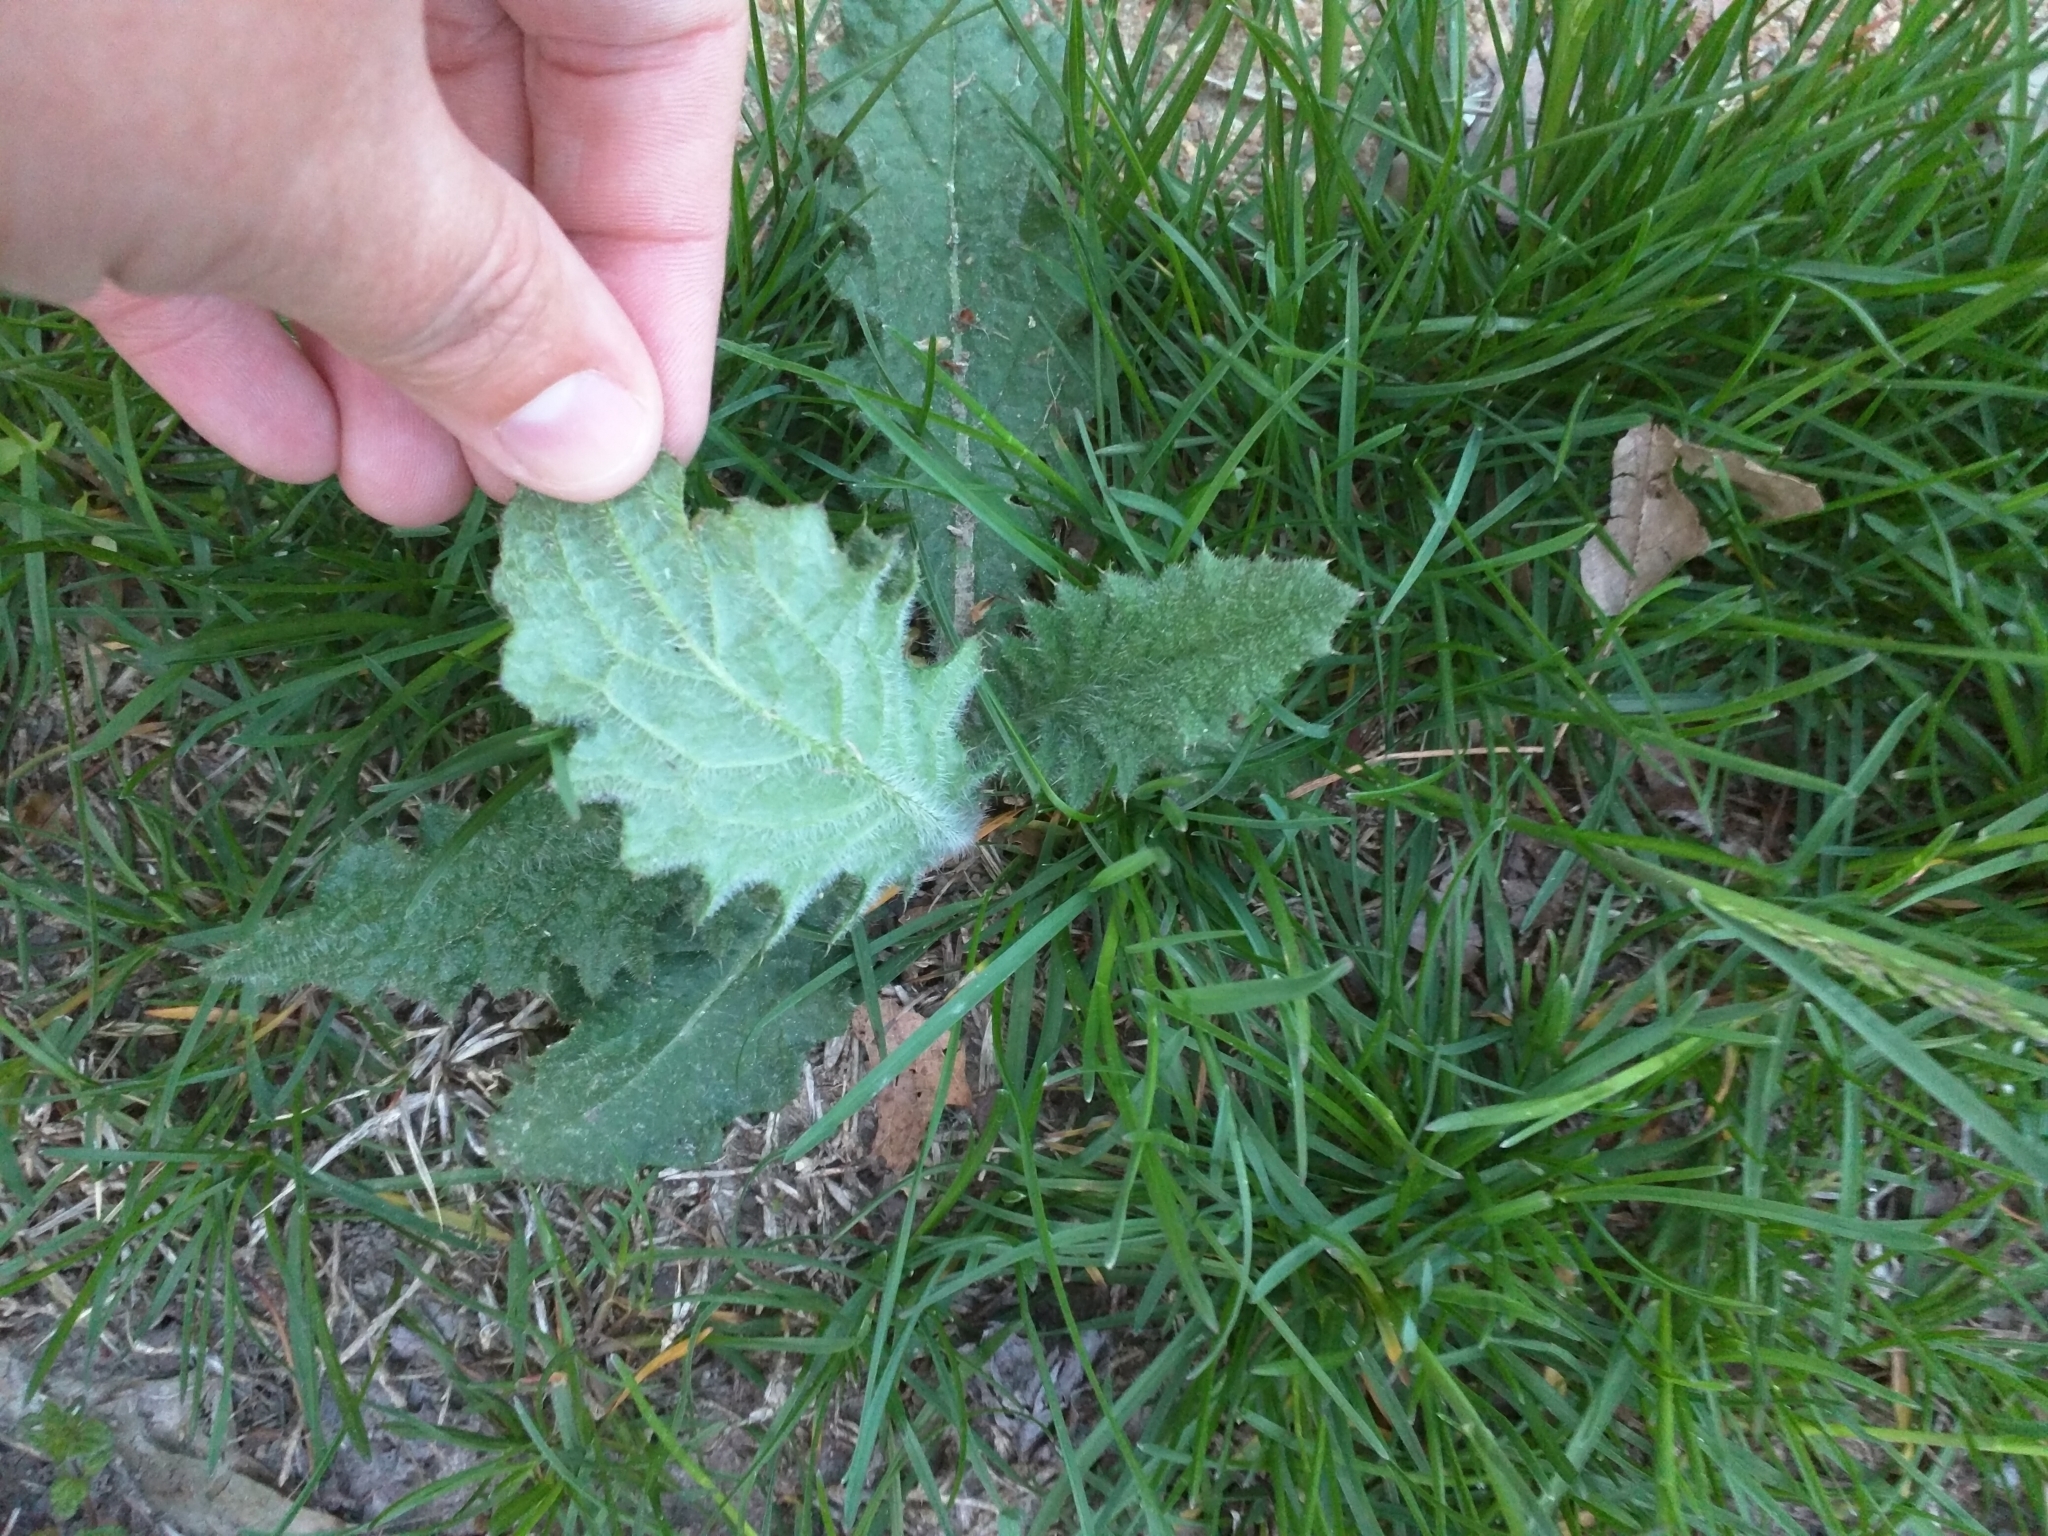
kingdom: Plantae
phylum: Tracheophyta
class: Magnoliopsida
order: Asterales
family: Asteraceae
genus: Cirsium
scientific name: Cirsium vulgare
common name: Bull thistle
